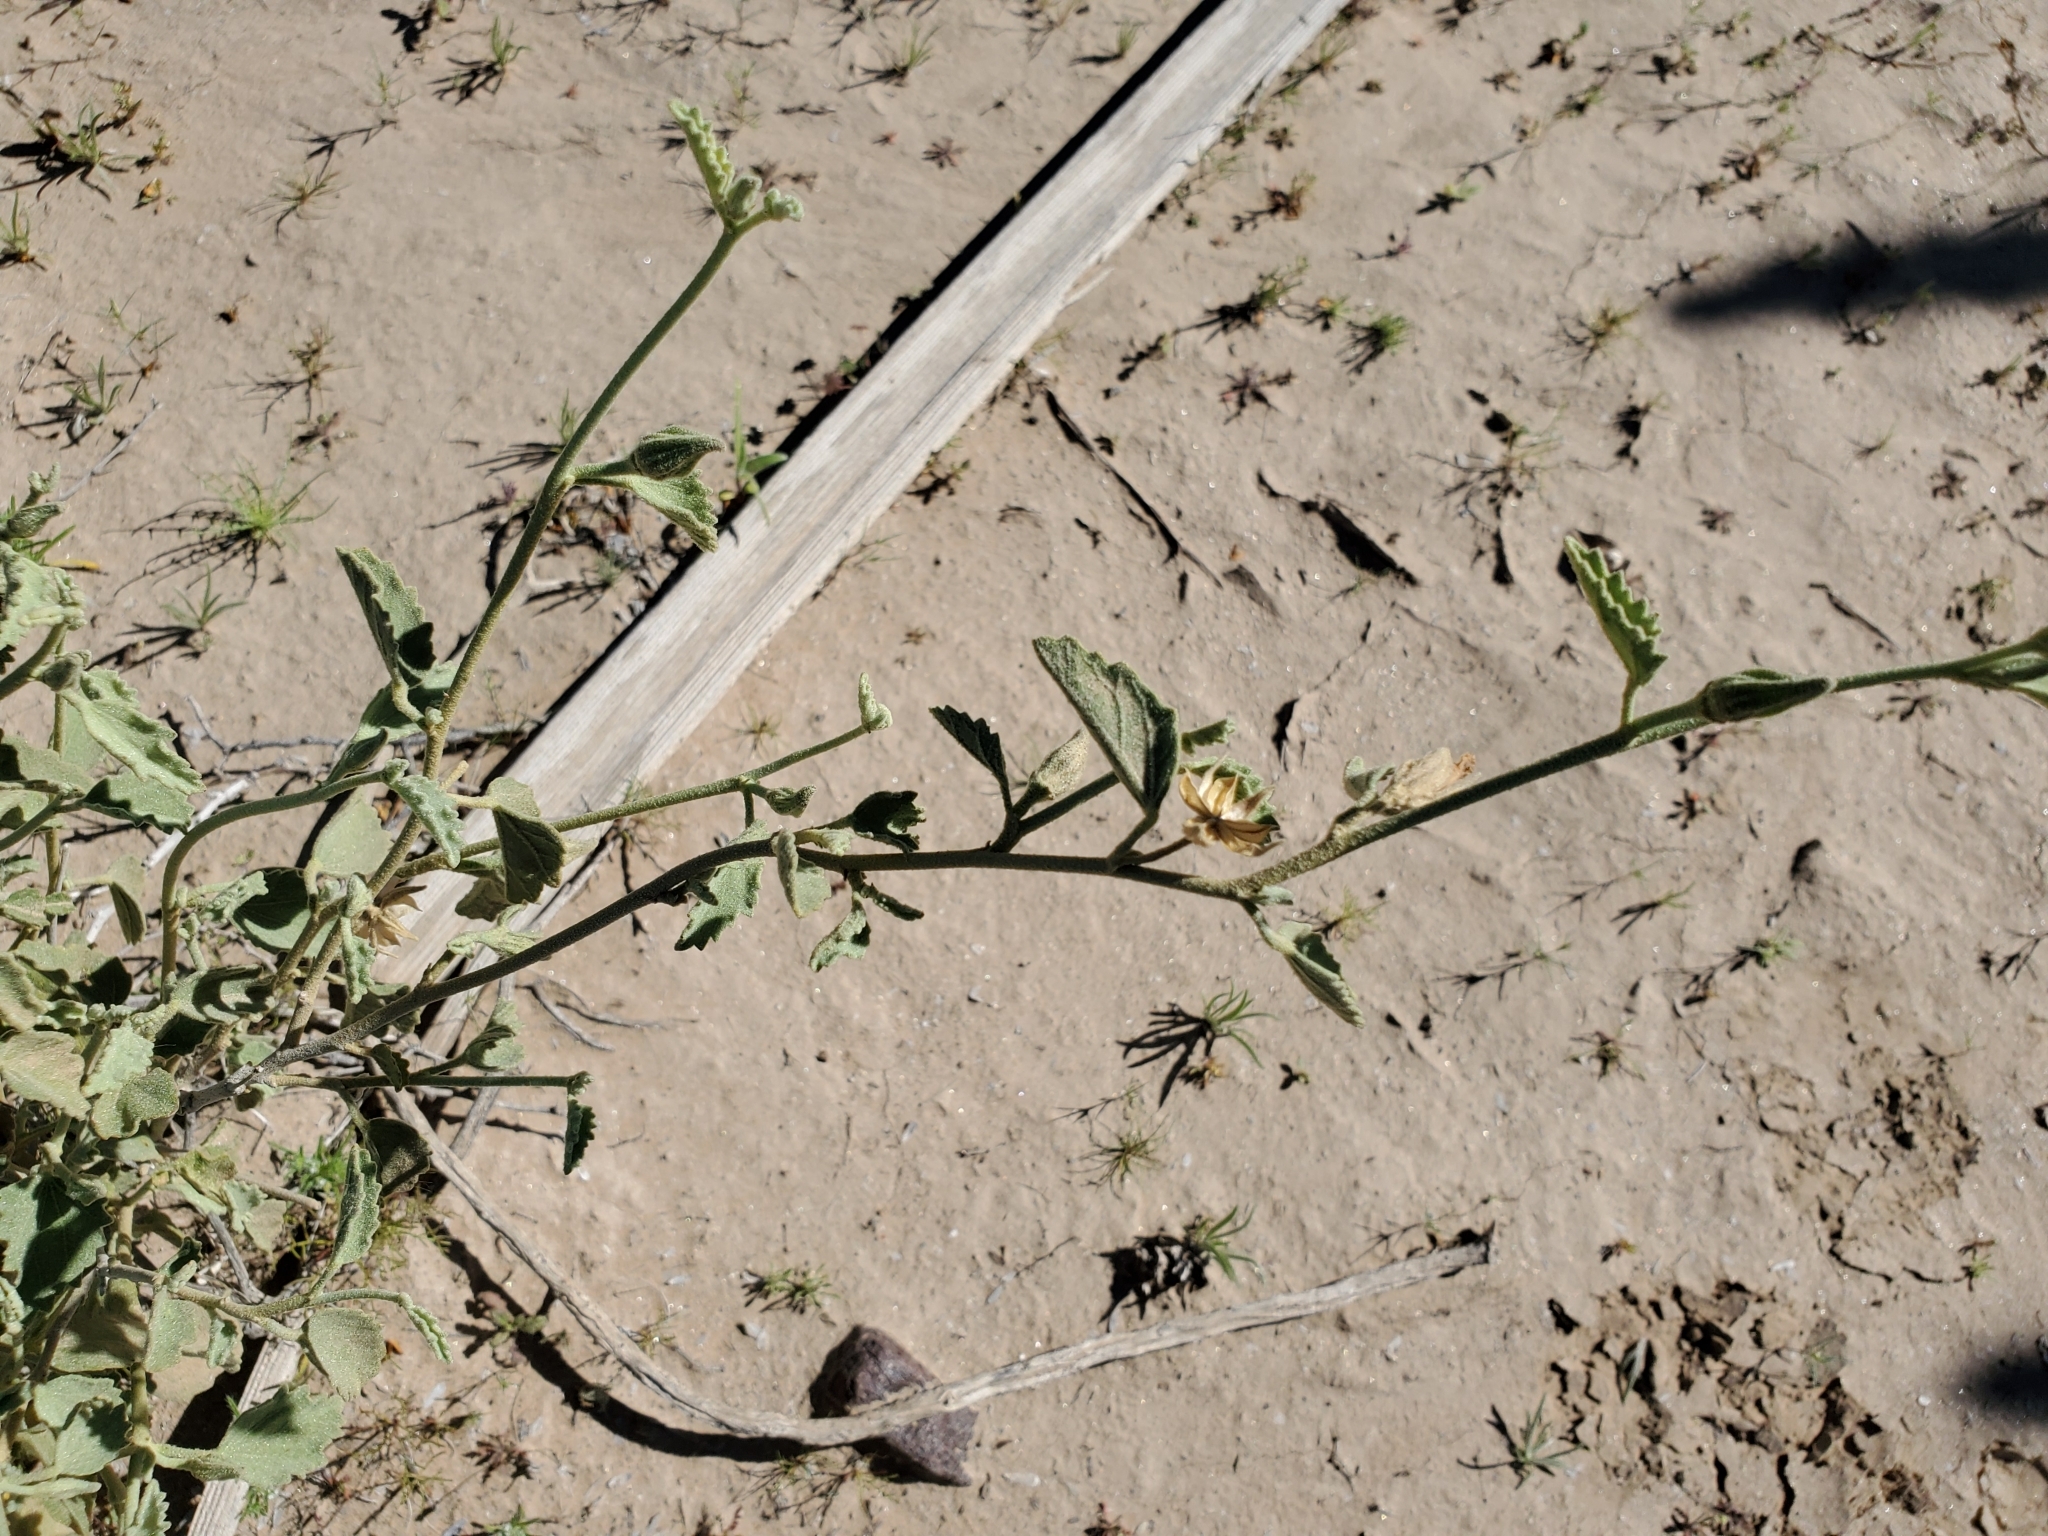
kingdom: Plantae
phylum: Tracheophyta
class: Magnoliopsida
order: Malvales
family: Malvaceae
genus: Hibiscus
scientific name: Hibiscus denudatus
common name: Paleface
